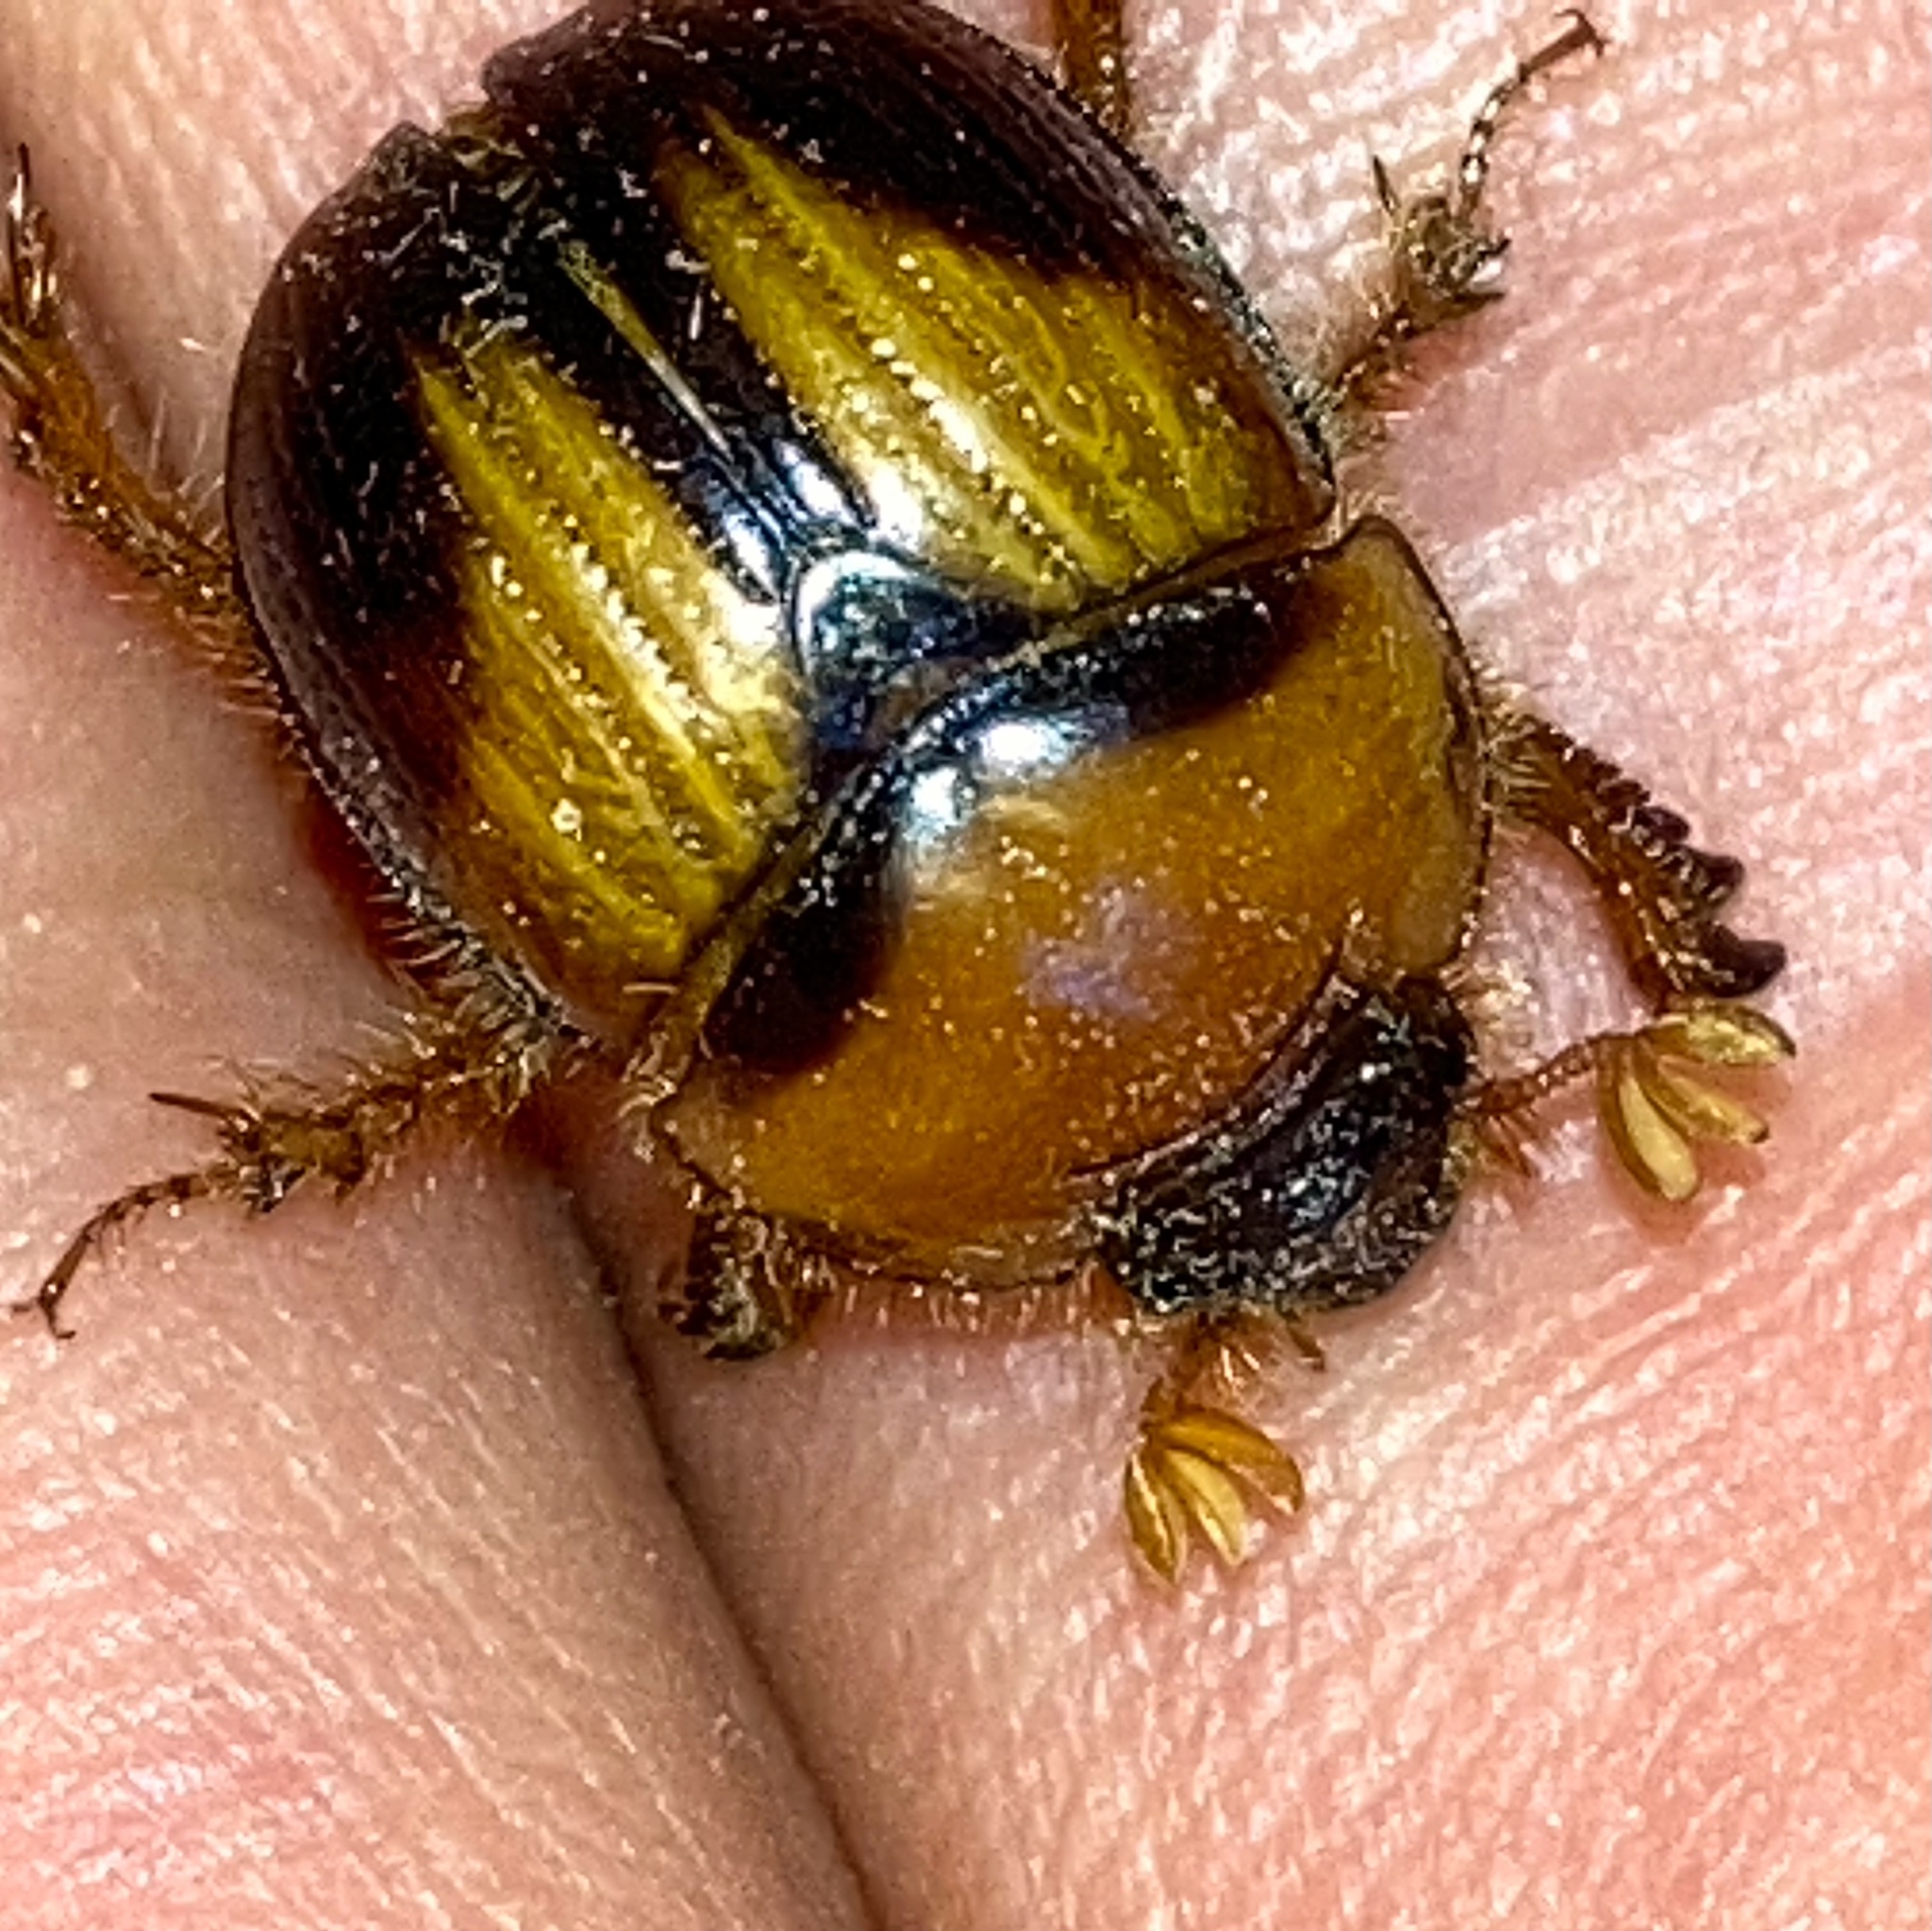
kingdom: Animalia
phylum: Arthropoda
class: Insecta
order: Coleoptera
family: Geotrupidae
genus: Bolbocerosoma
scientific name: Bolbocerosoma farctum
